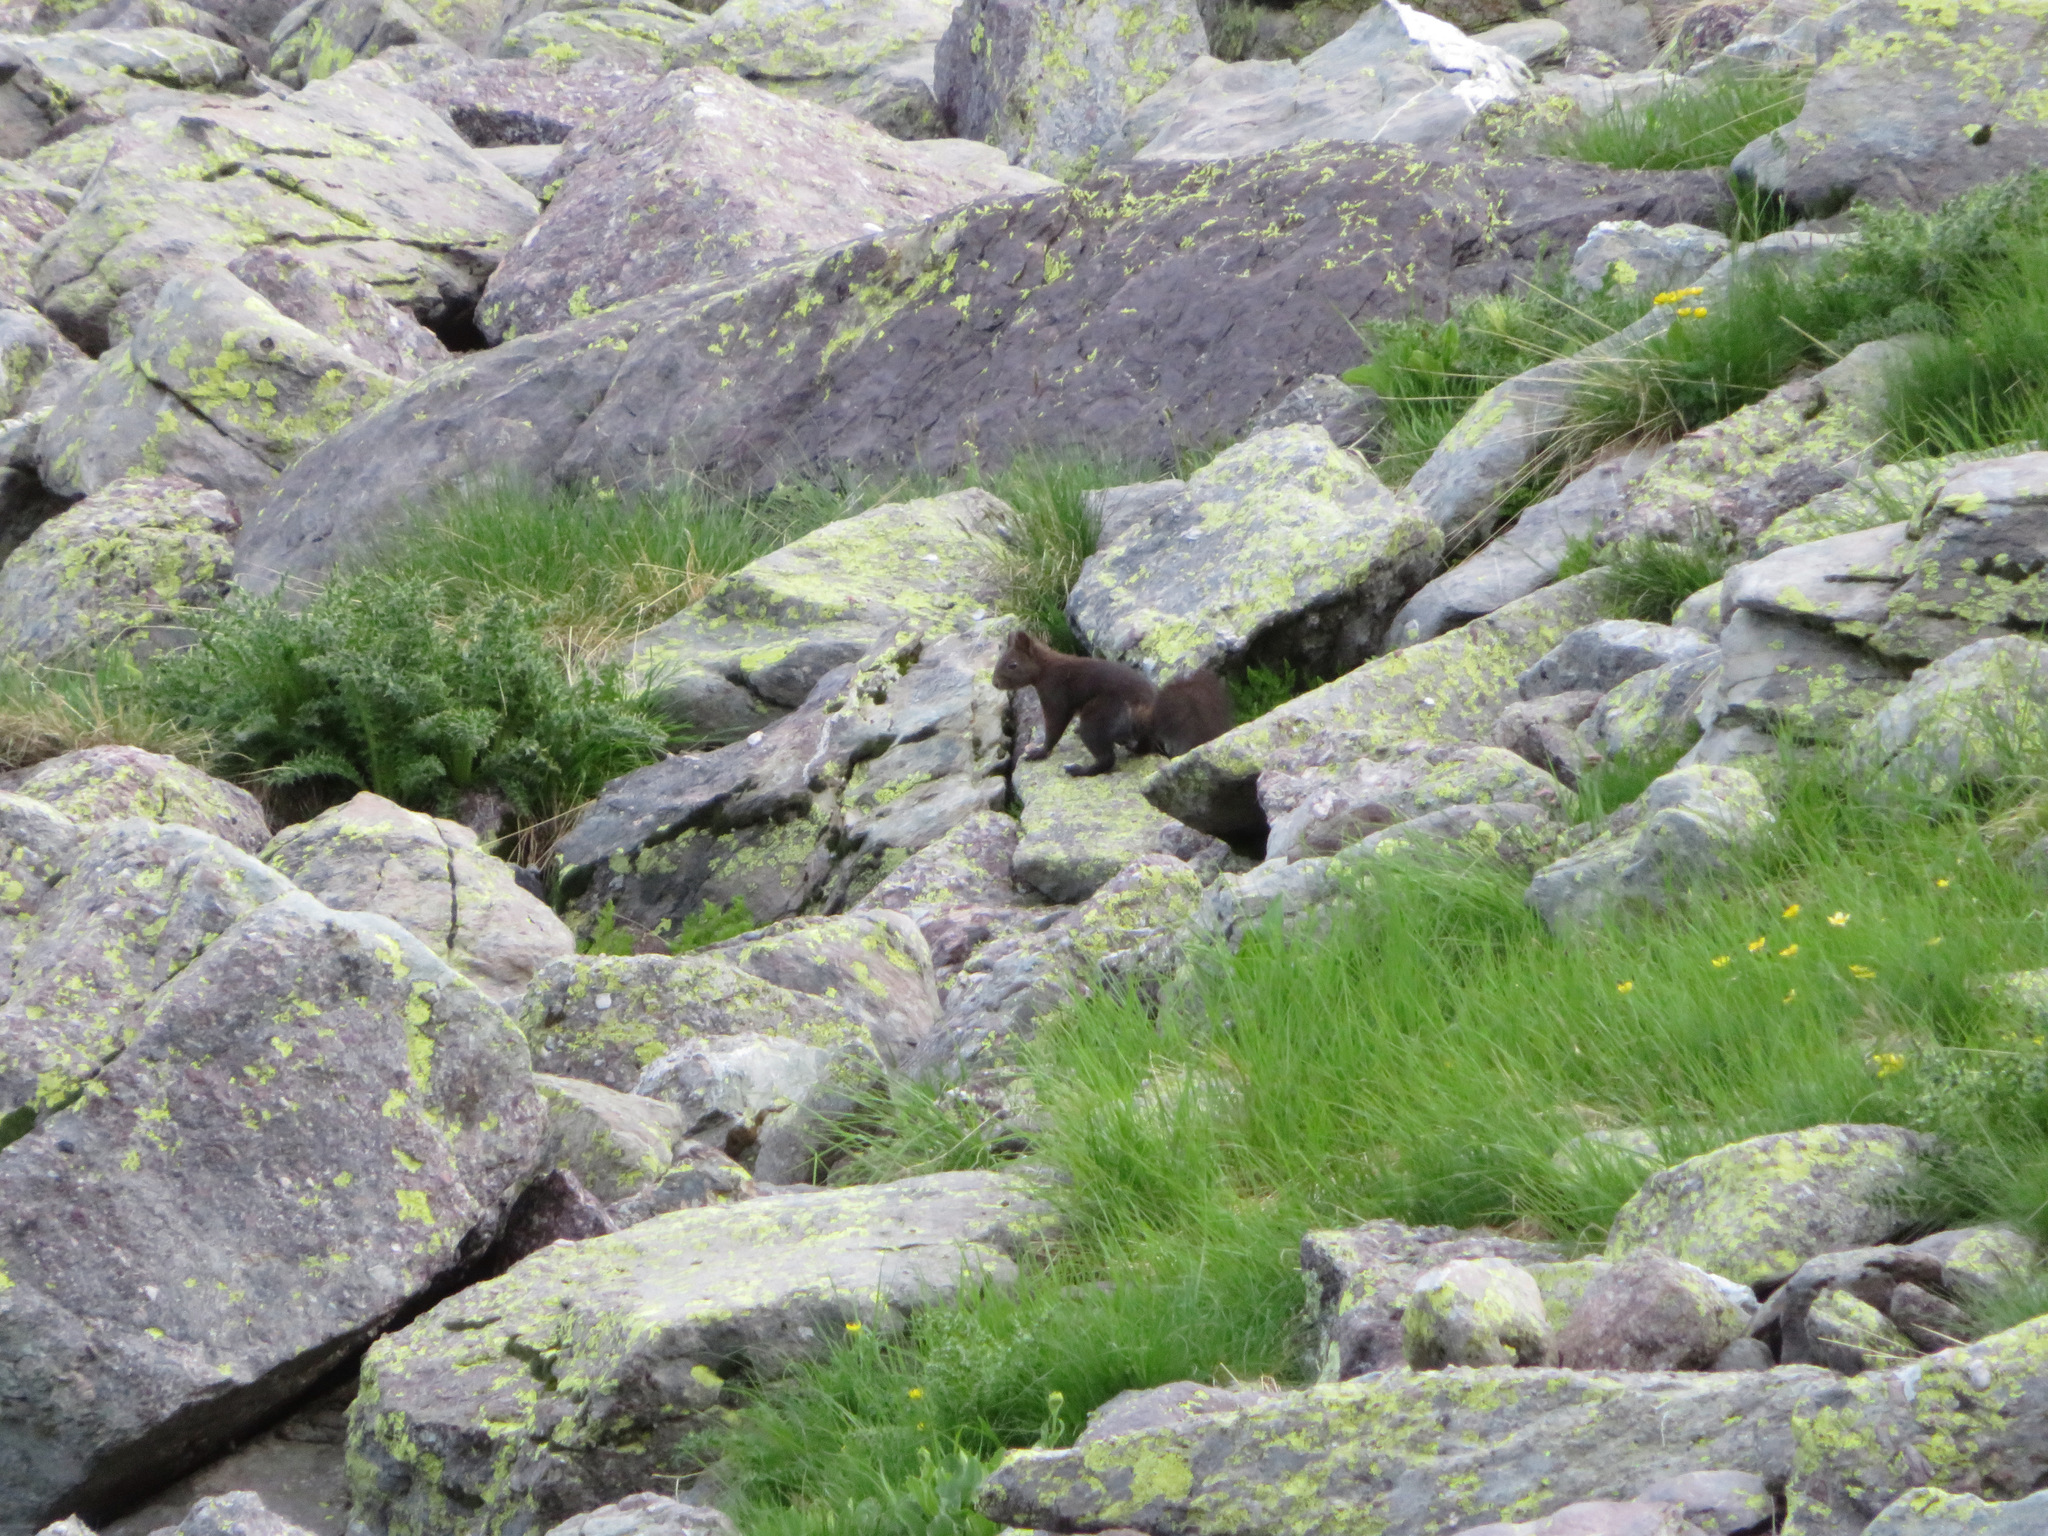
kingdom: Animalia
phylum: Chordata
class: Mammalia
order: Rodentia
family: Sciuridae
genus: Sciurus
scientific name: Sciurus vulgaris
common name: Eurasian red squirrel
